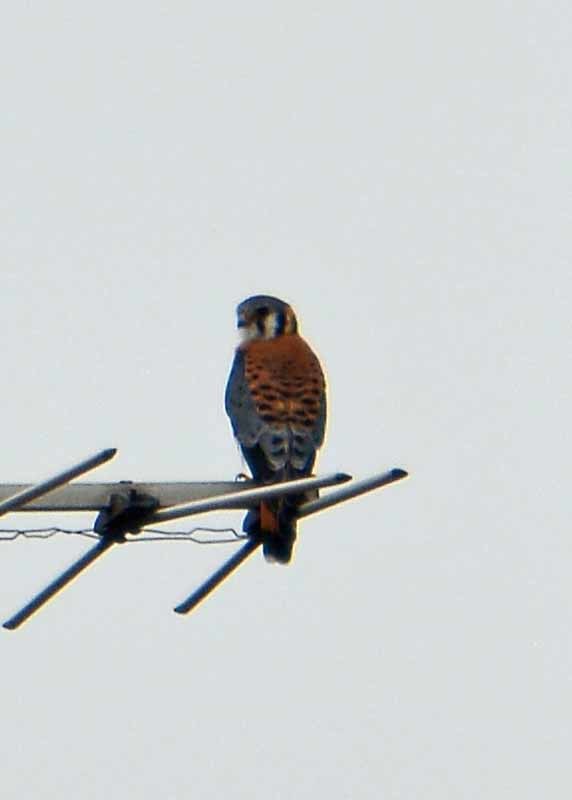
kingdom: Animalia
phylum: Chordata
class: Aves
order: Falconiformes
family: Falconidae
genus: Falco
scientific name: Falco sparverius
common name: American kestrel
